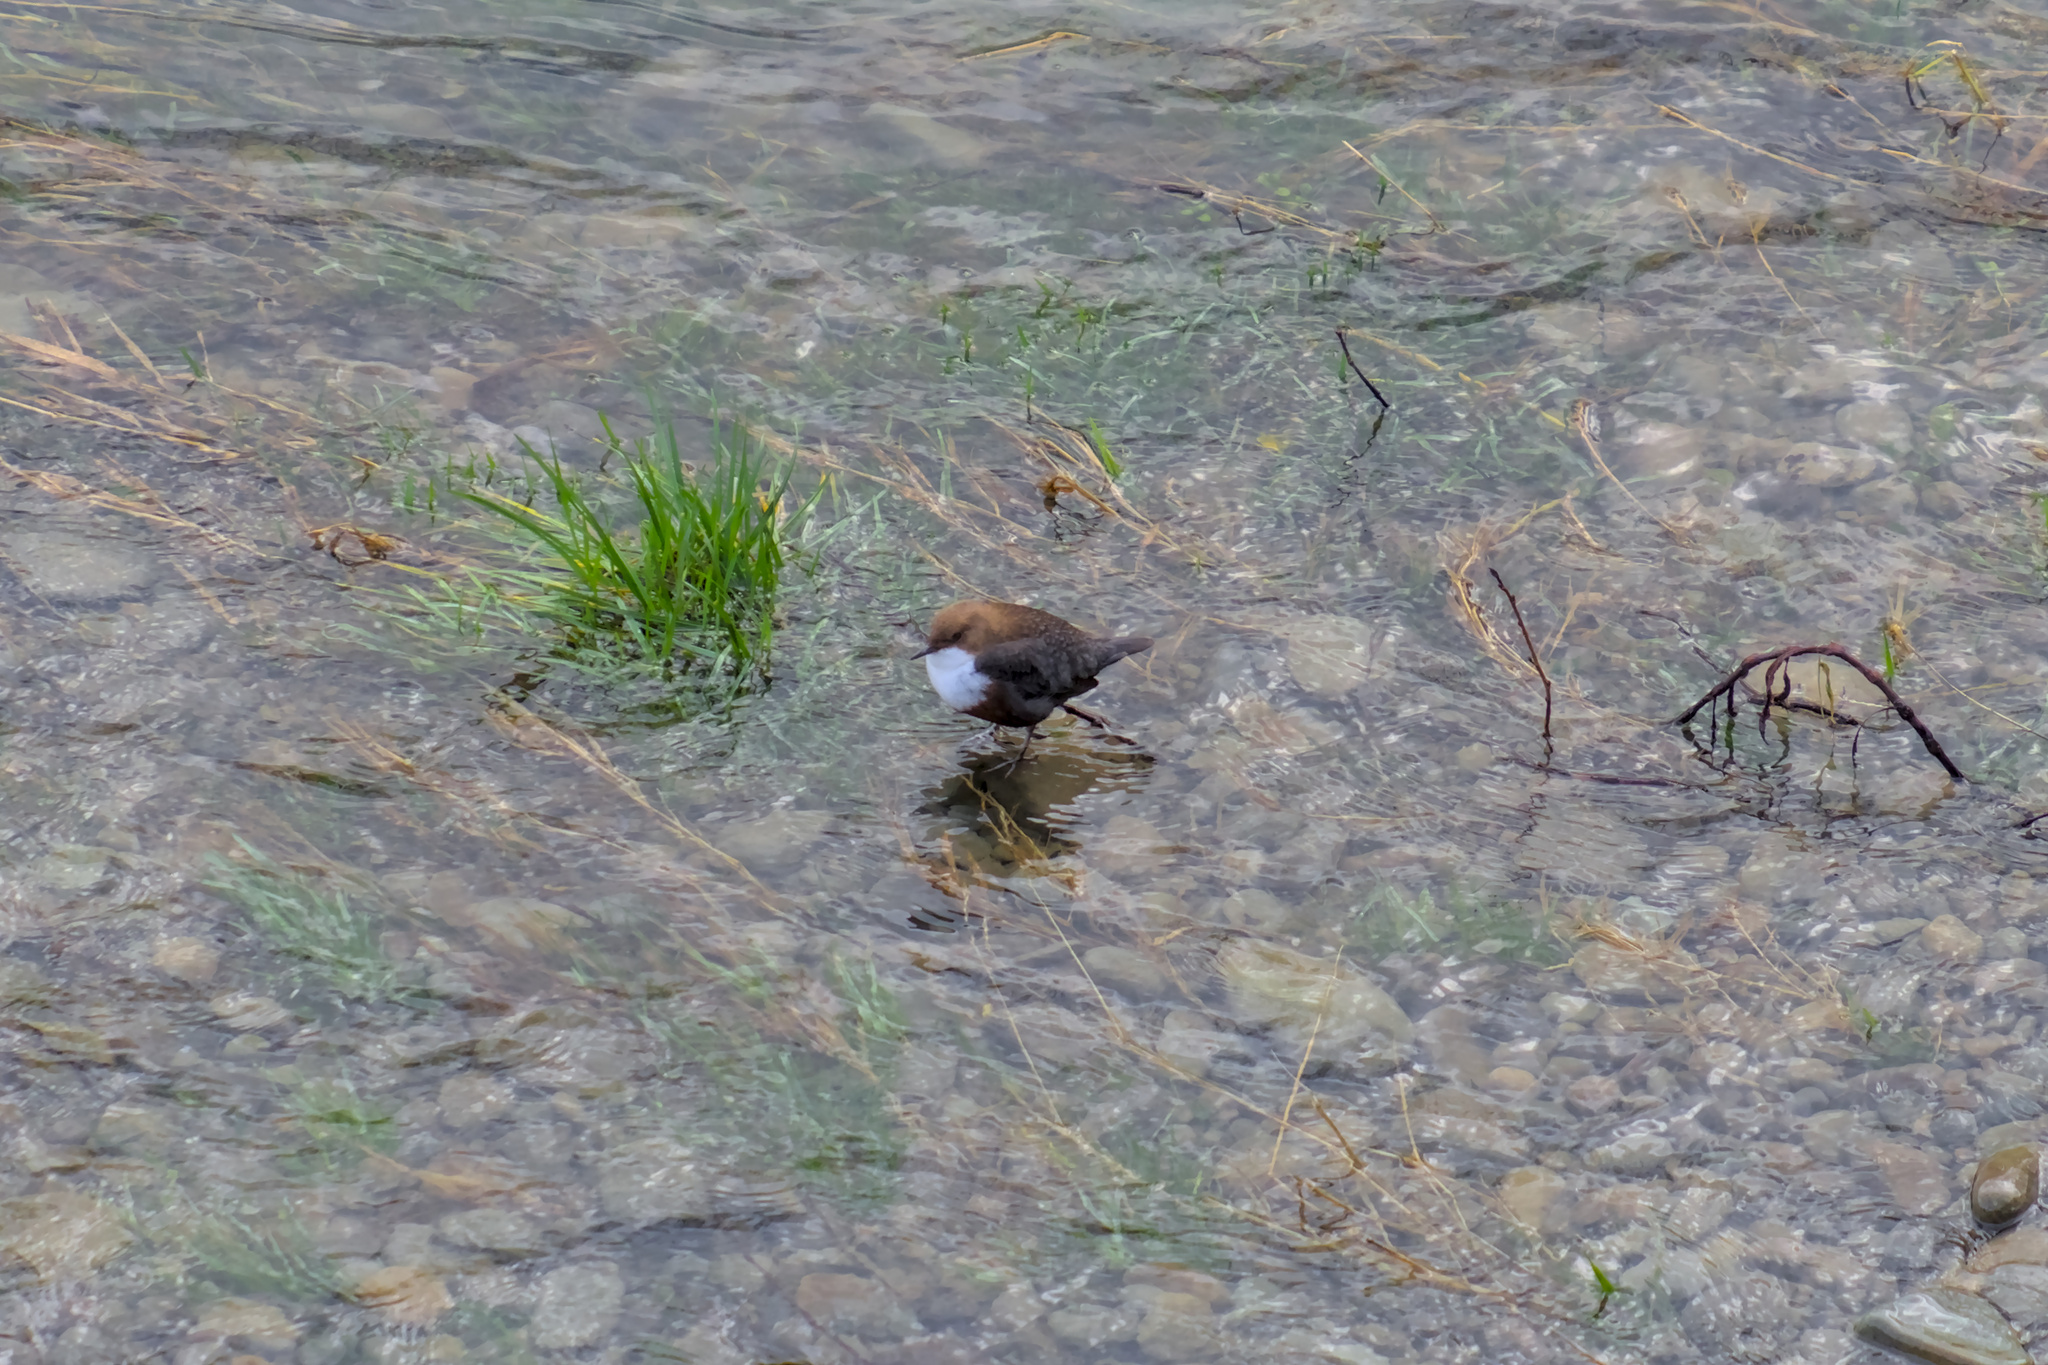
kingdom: Animalia
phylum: Chordata
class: Aves
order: Passeriformes
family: Cinclidae
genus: Cinclus
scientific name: Cinclus cinclus
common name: White-throated dipper
